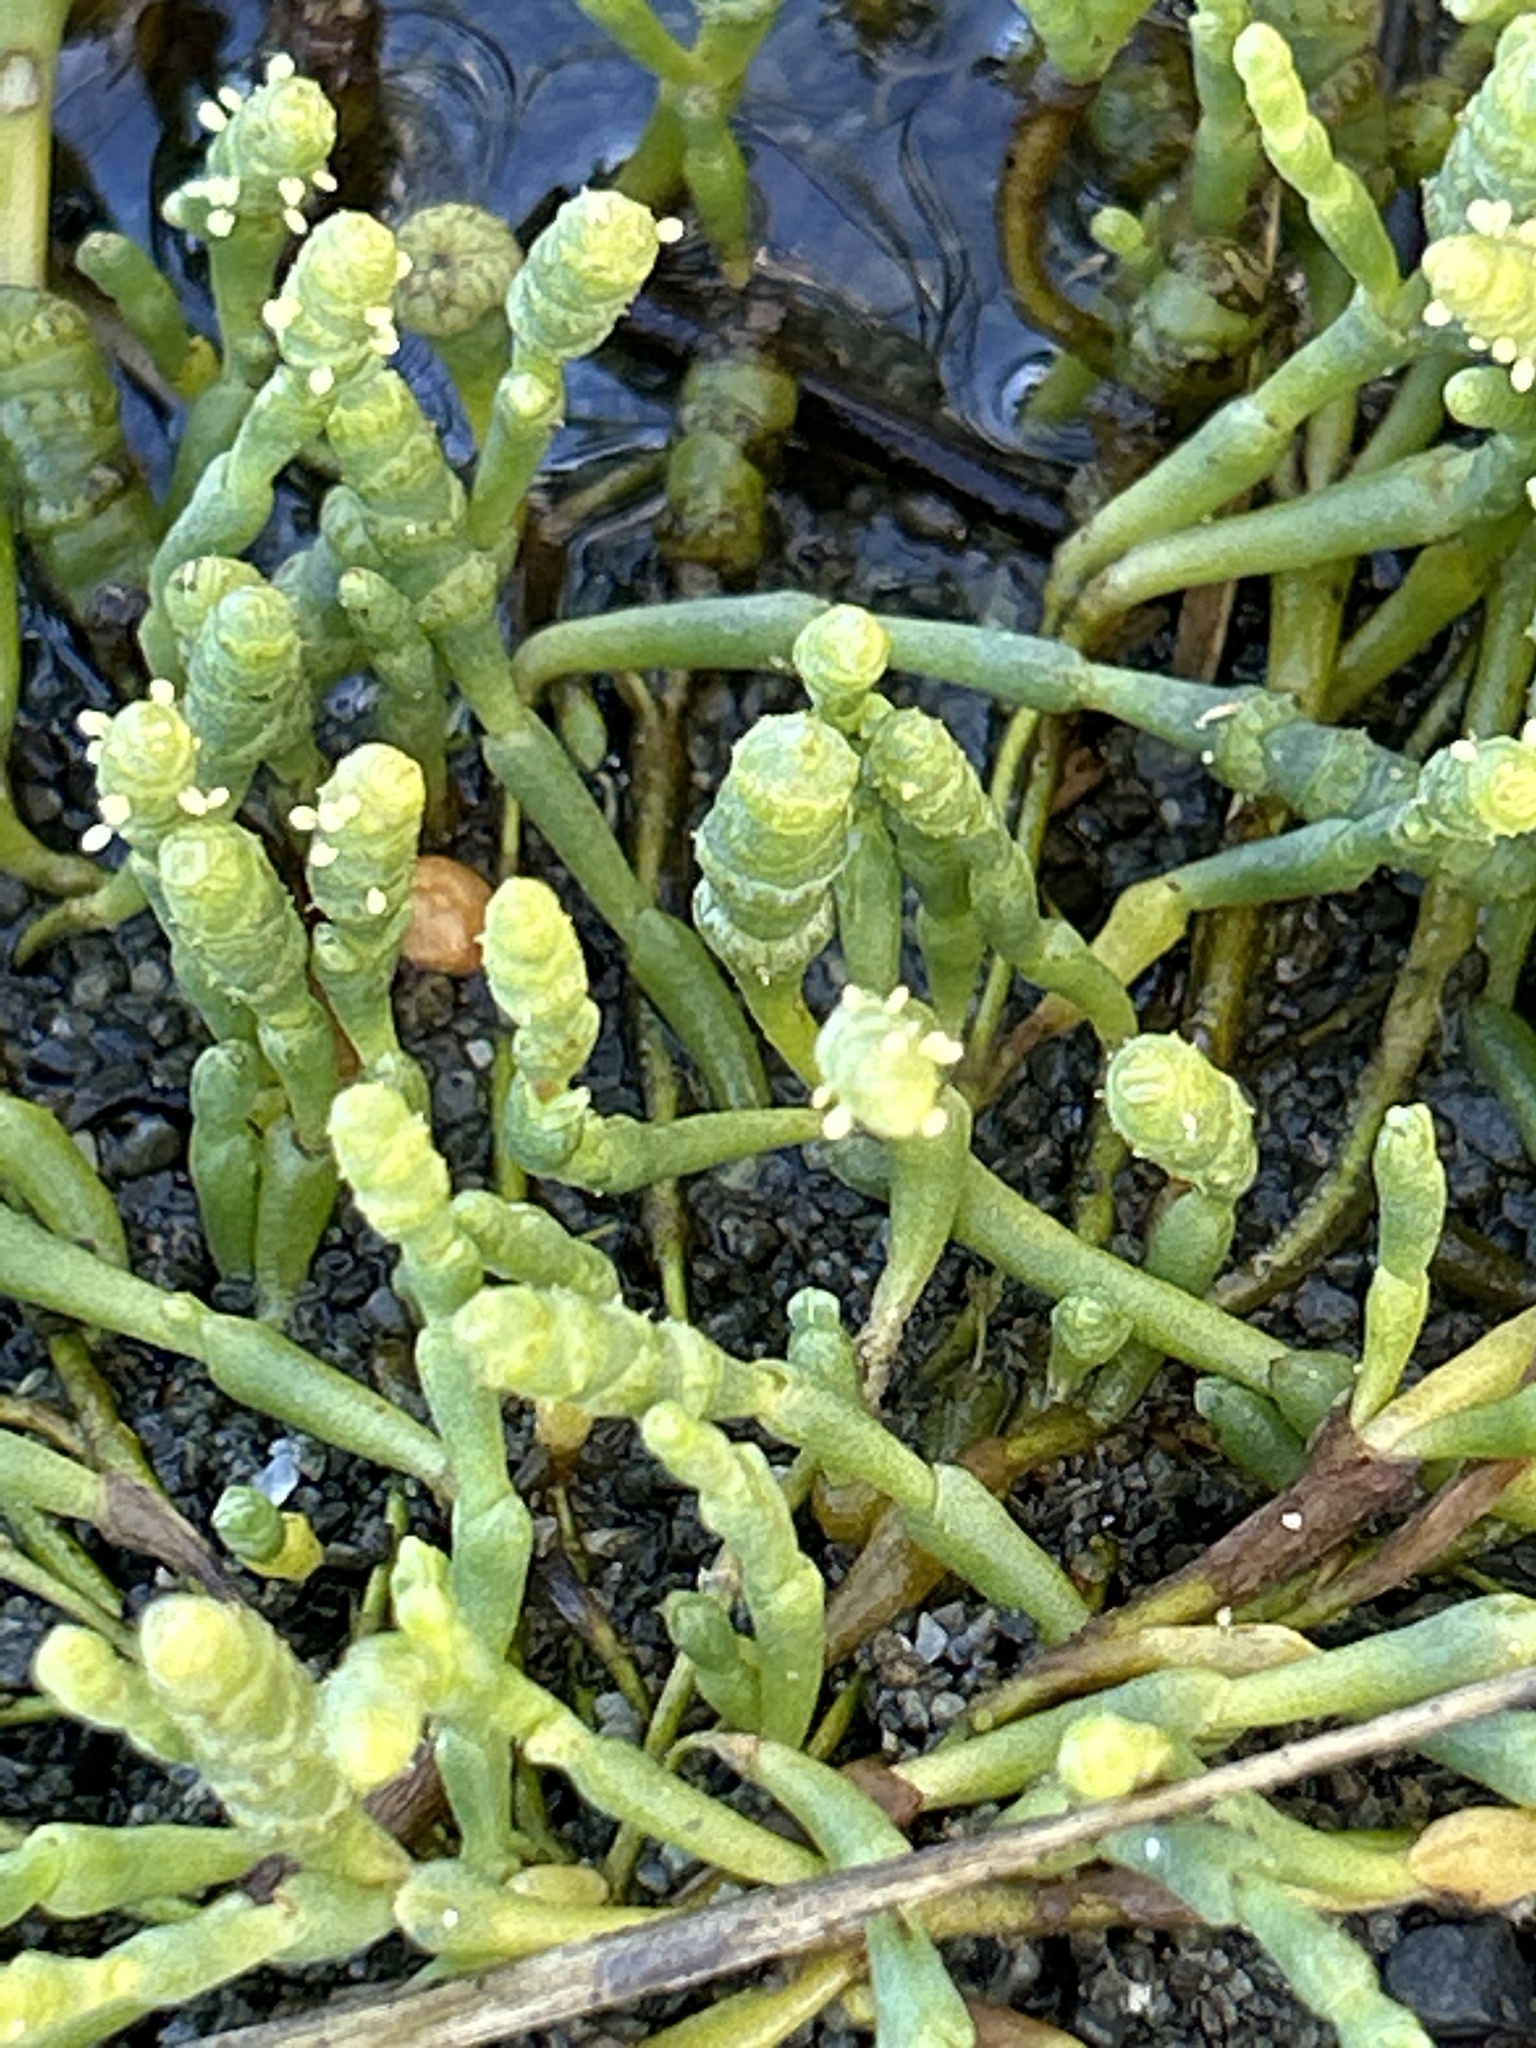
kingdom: Plantae
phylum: Tracheophyta
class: Magnoliopsida
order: Caryophyllales
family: Amaranthaceae
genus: Salicornia
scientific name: Salicornia quinqueflora
